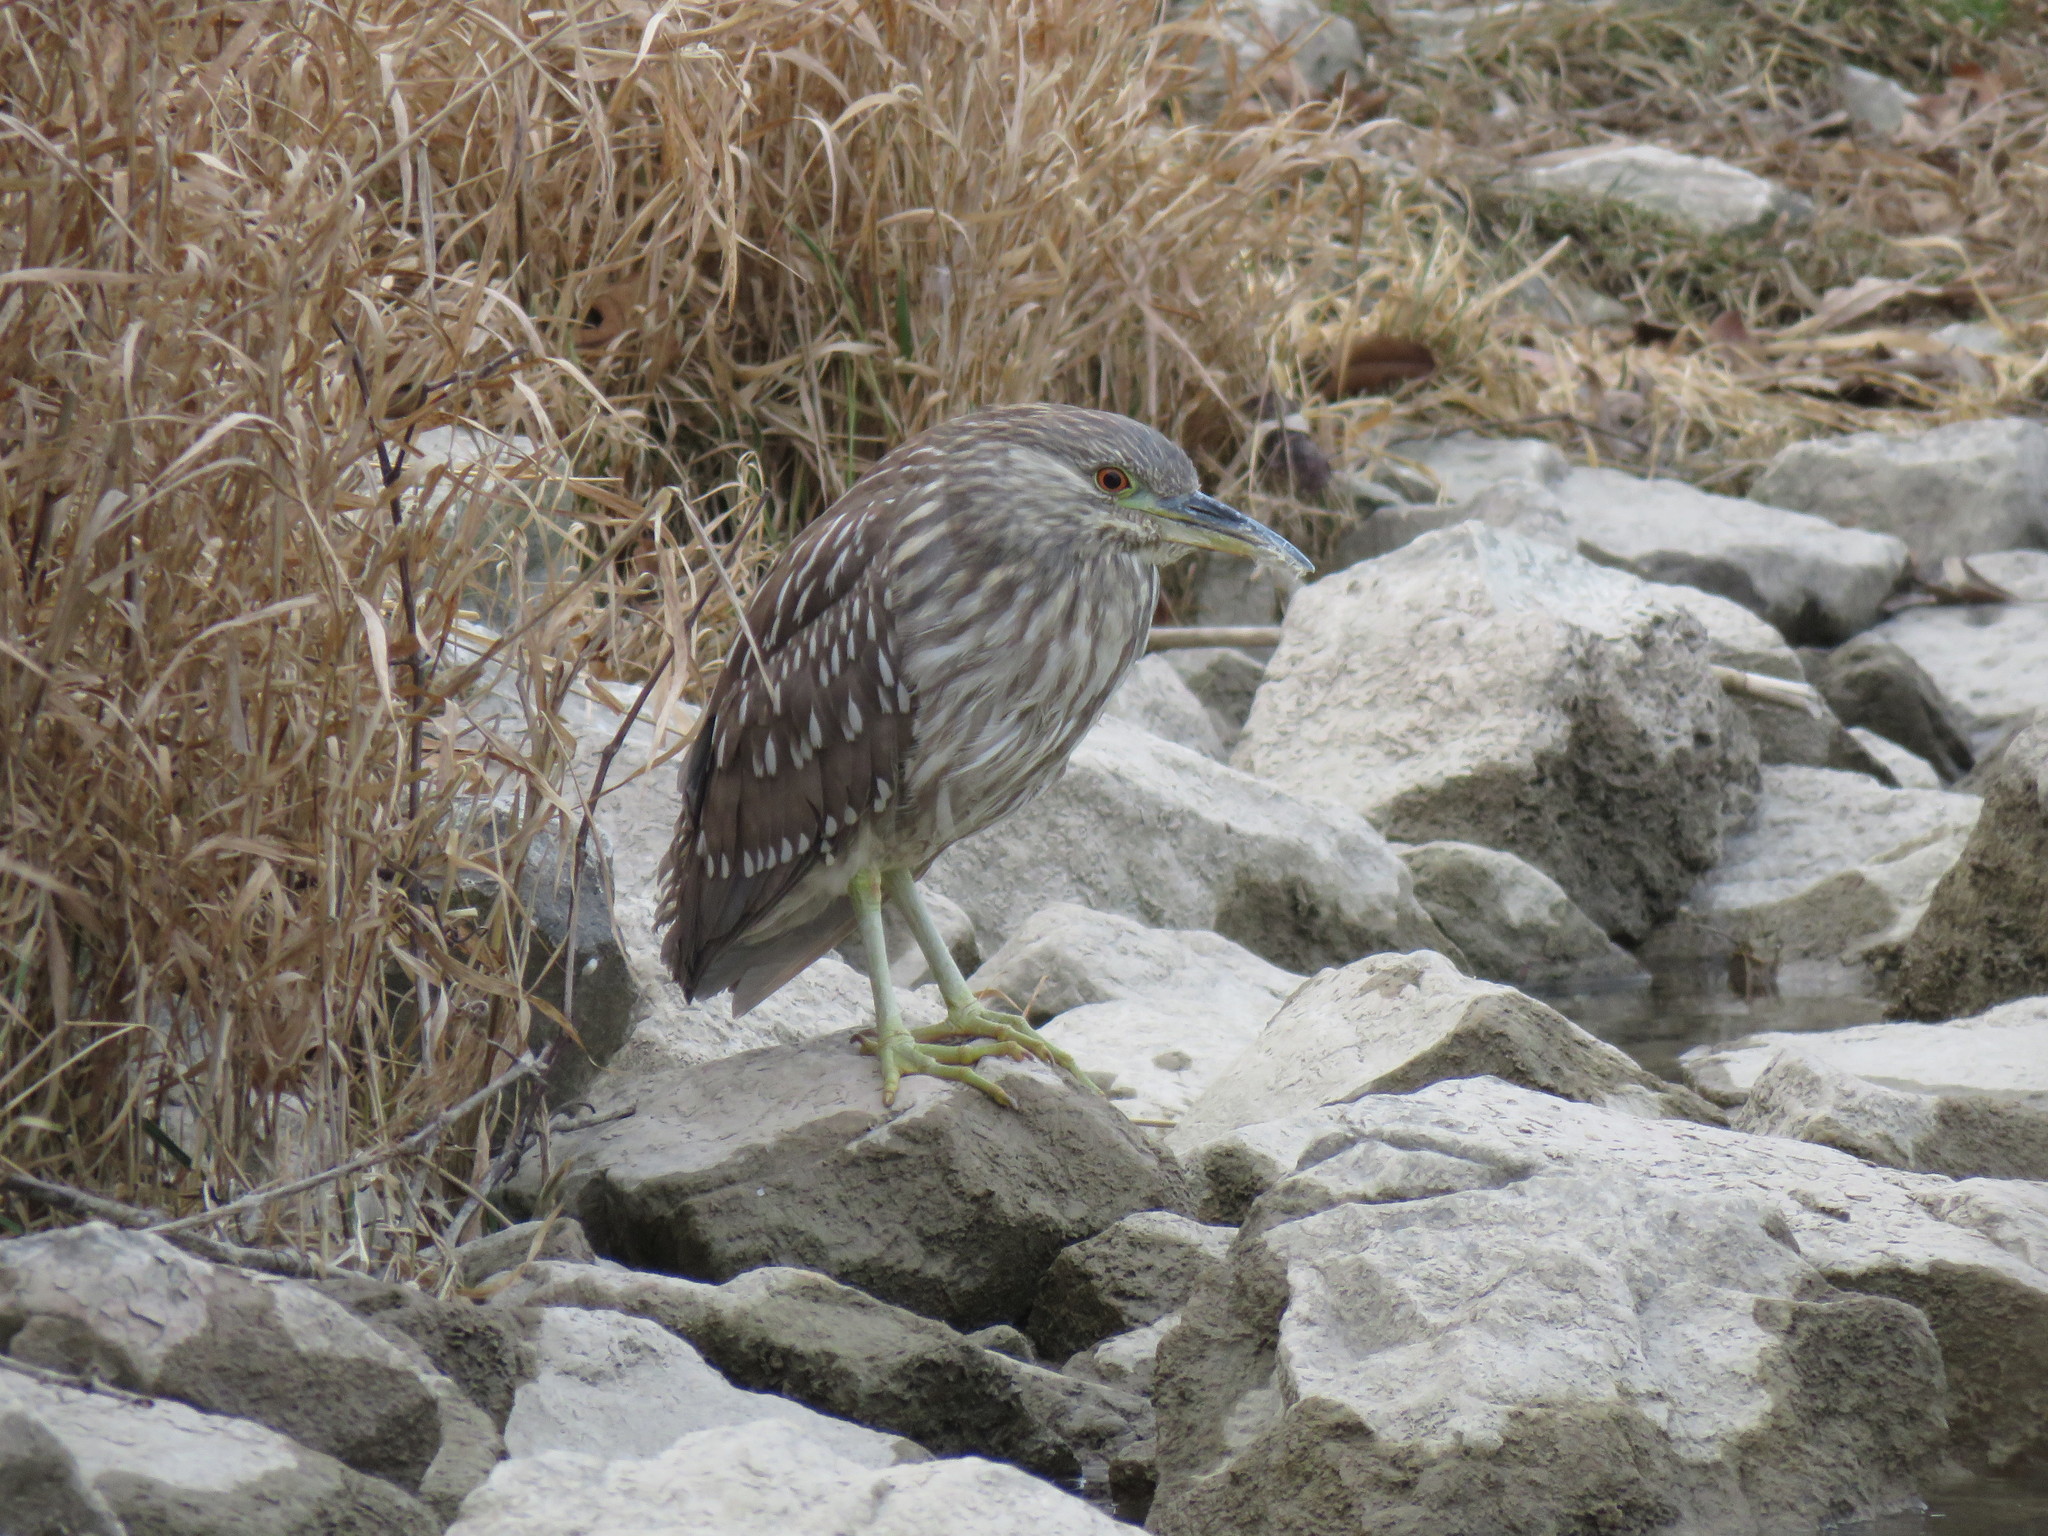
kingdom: Animalia
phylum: Chordata
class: Aves
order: Pelecaniformes
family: Ardeidae
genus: Nycticorax
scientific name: Nycticorax nycticorax
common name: Black-crowned night heron
